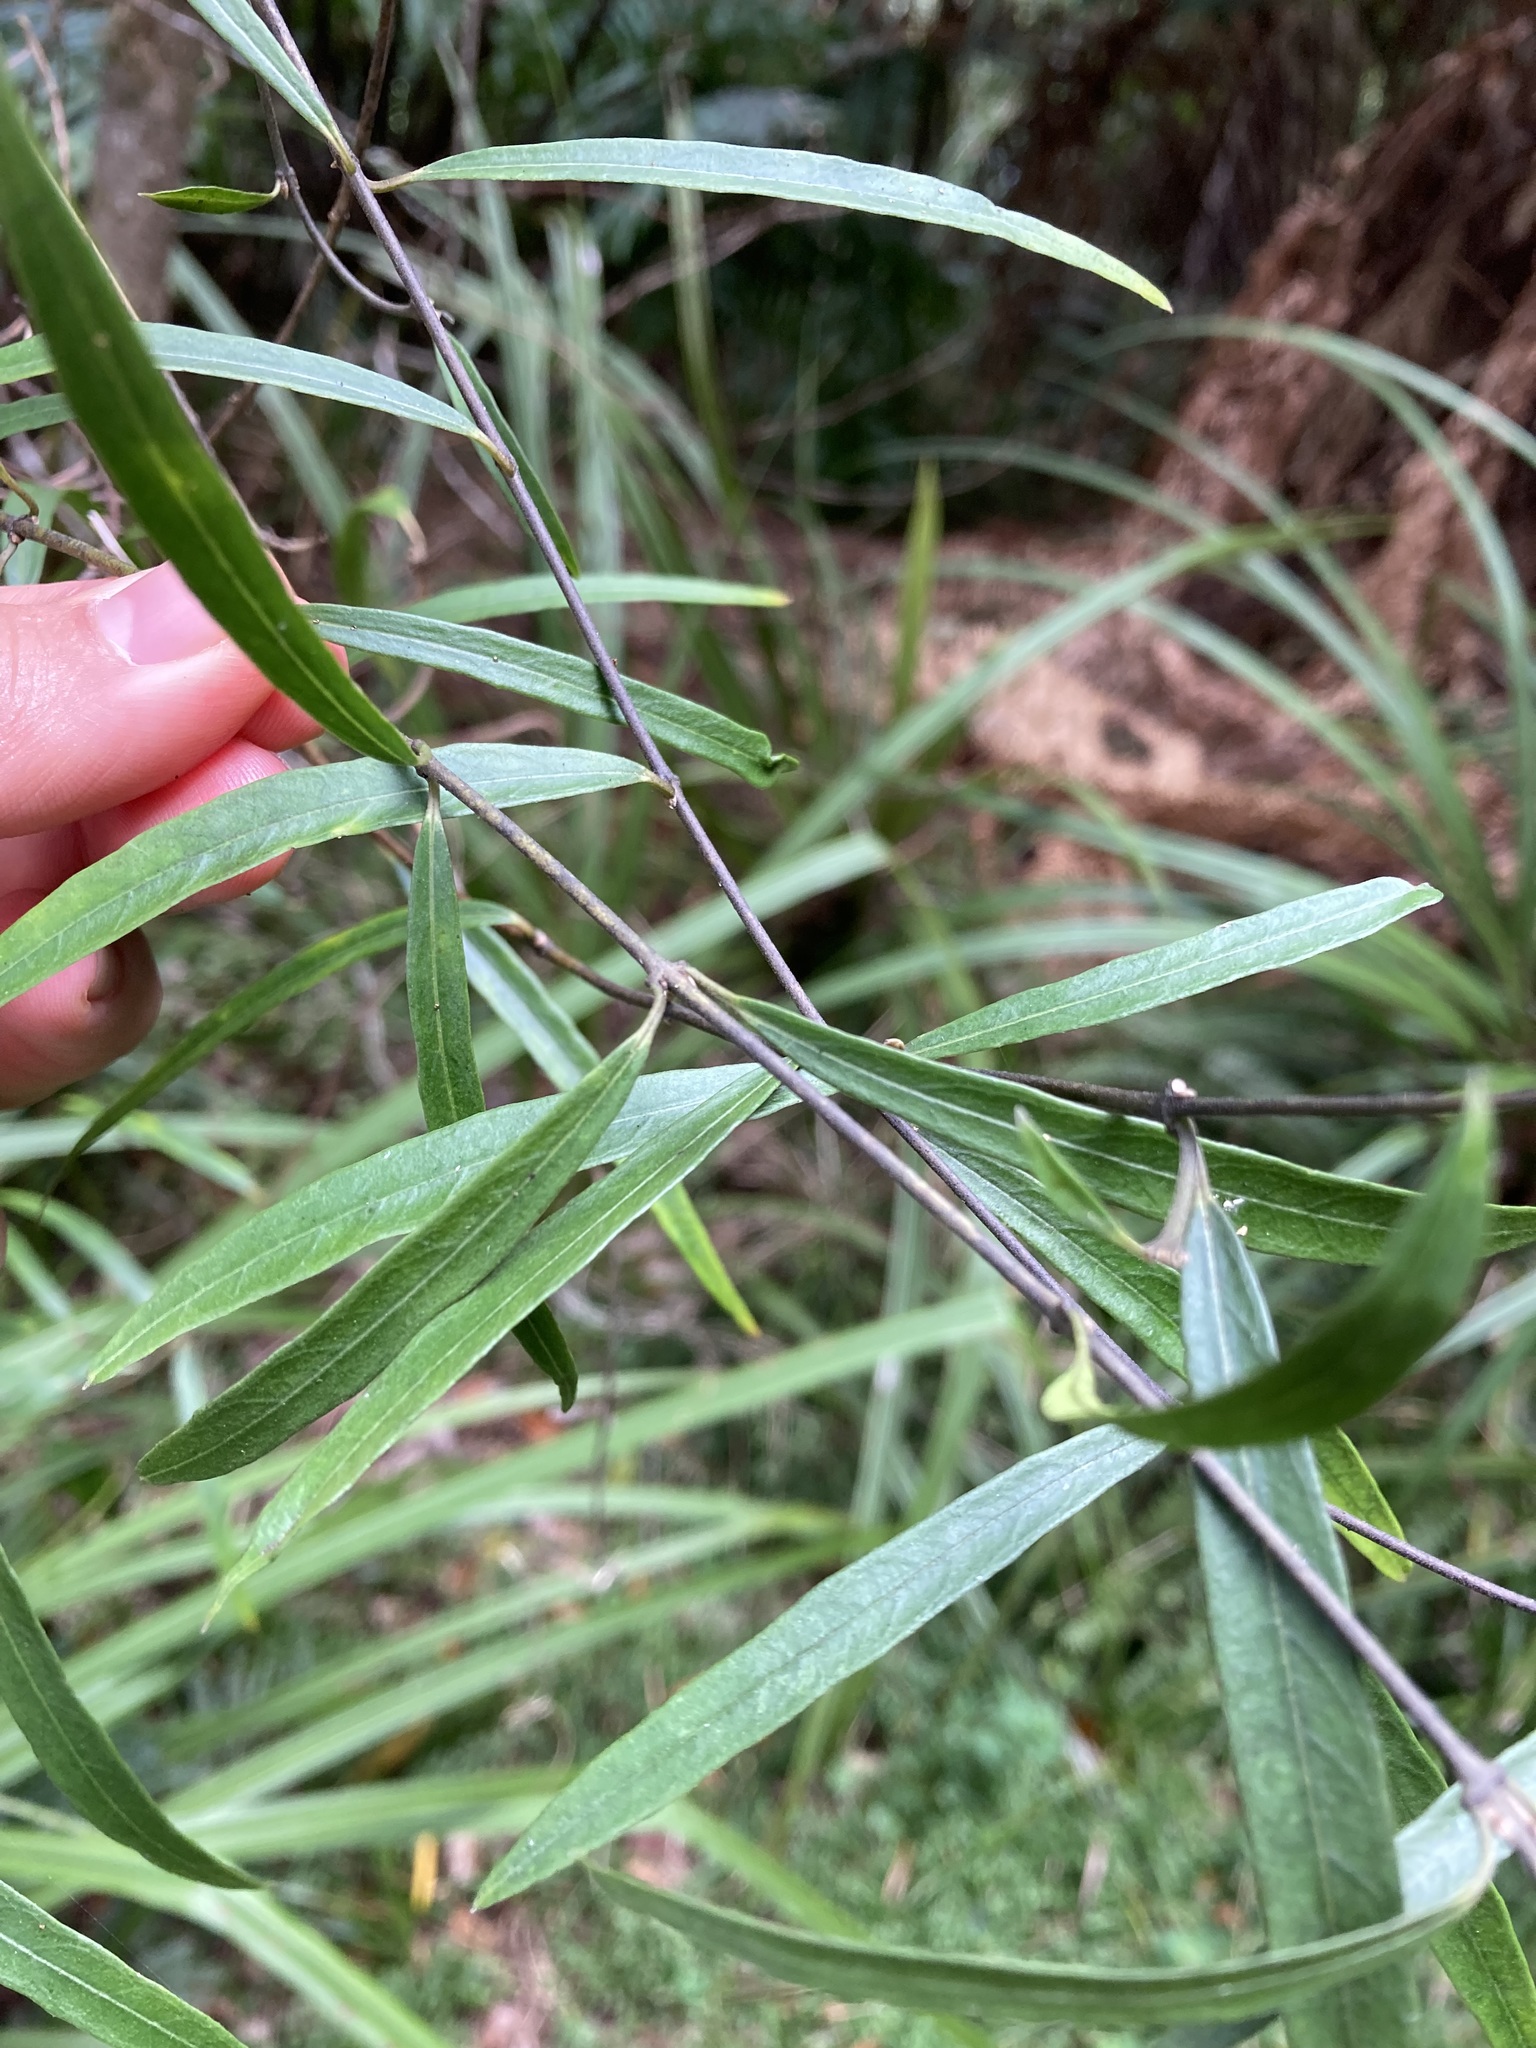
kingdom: Plantae
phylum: Tracheophyta
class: Magnoliopsida
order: Gentianales
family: Apocynaceae
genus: Parsonsia
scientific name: Parsonsia capsularis
